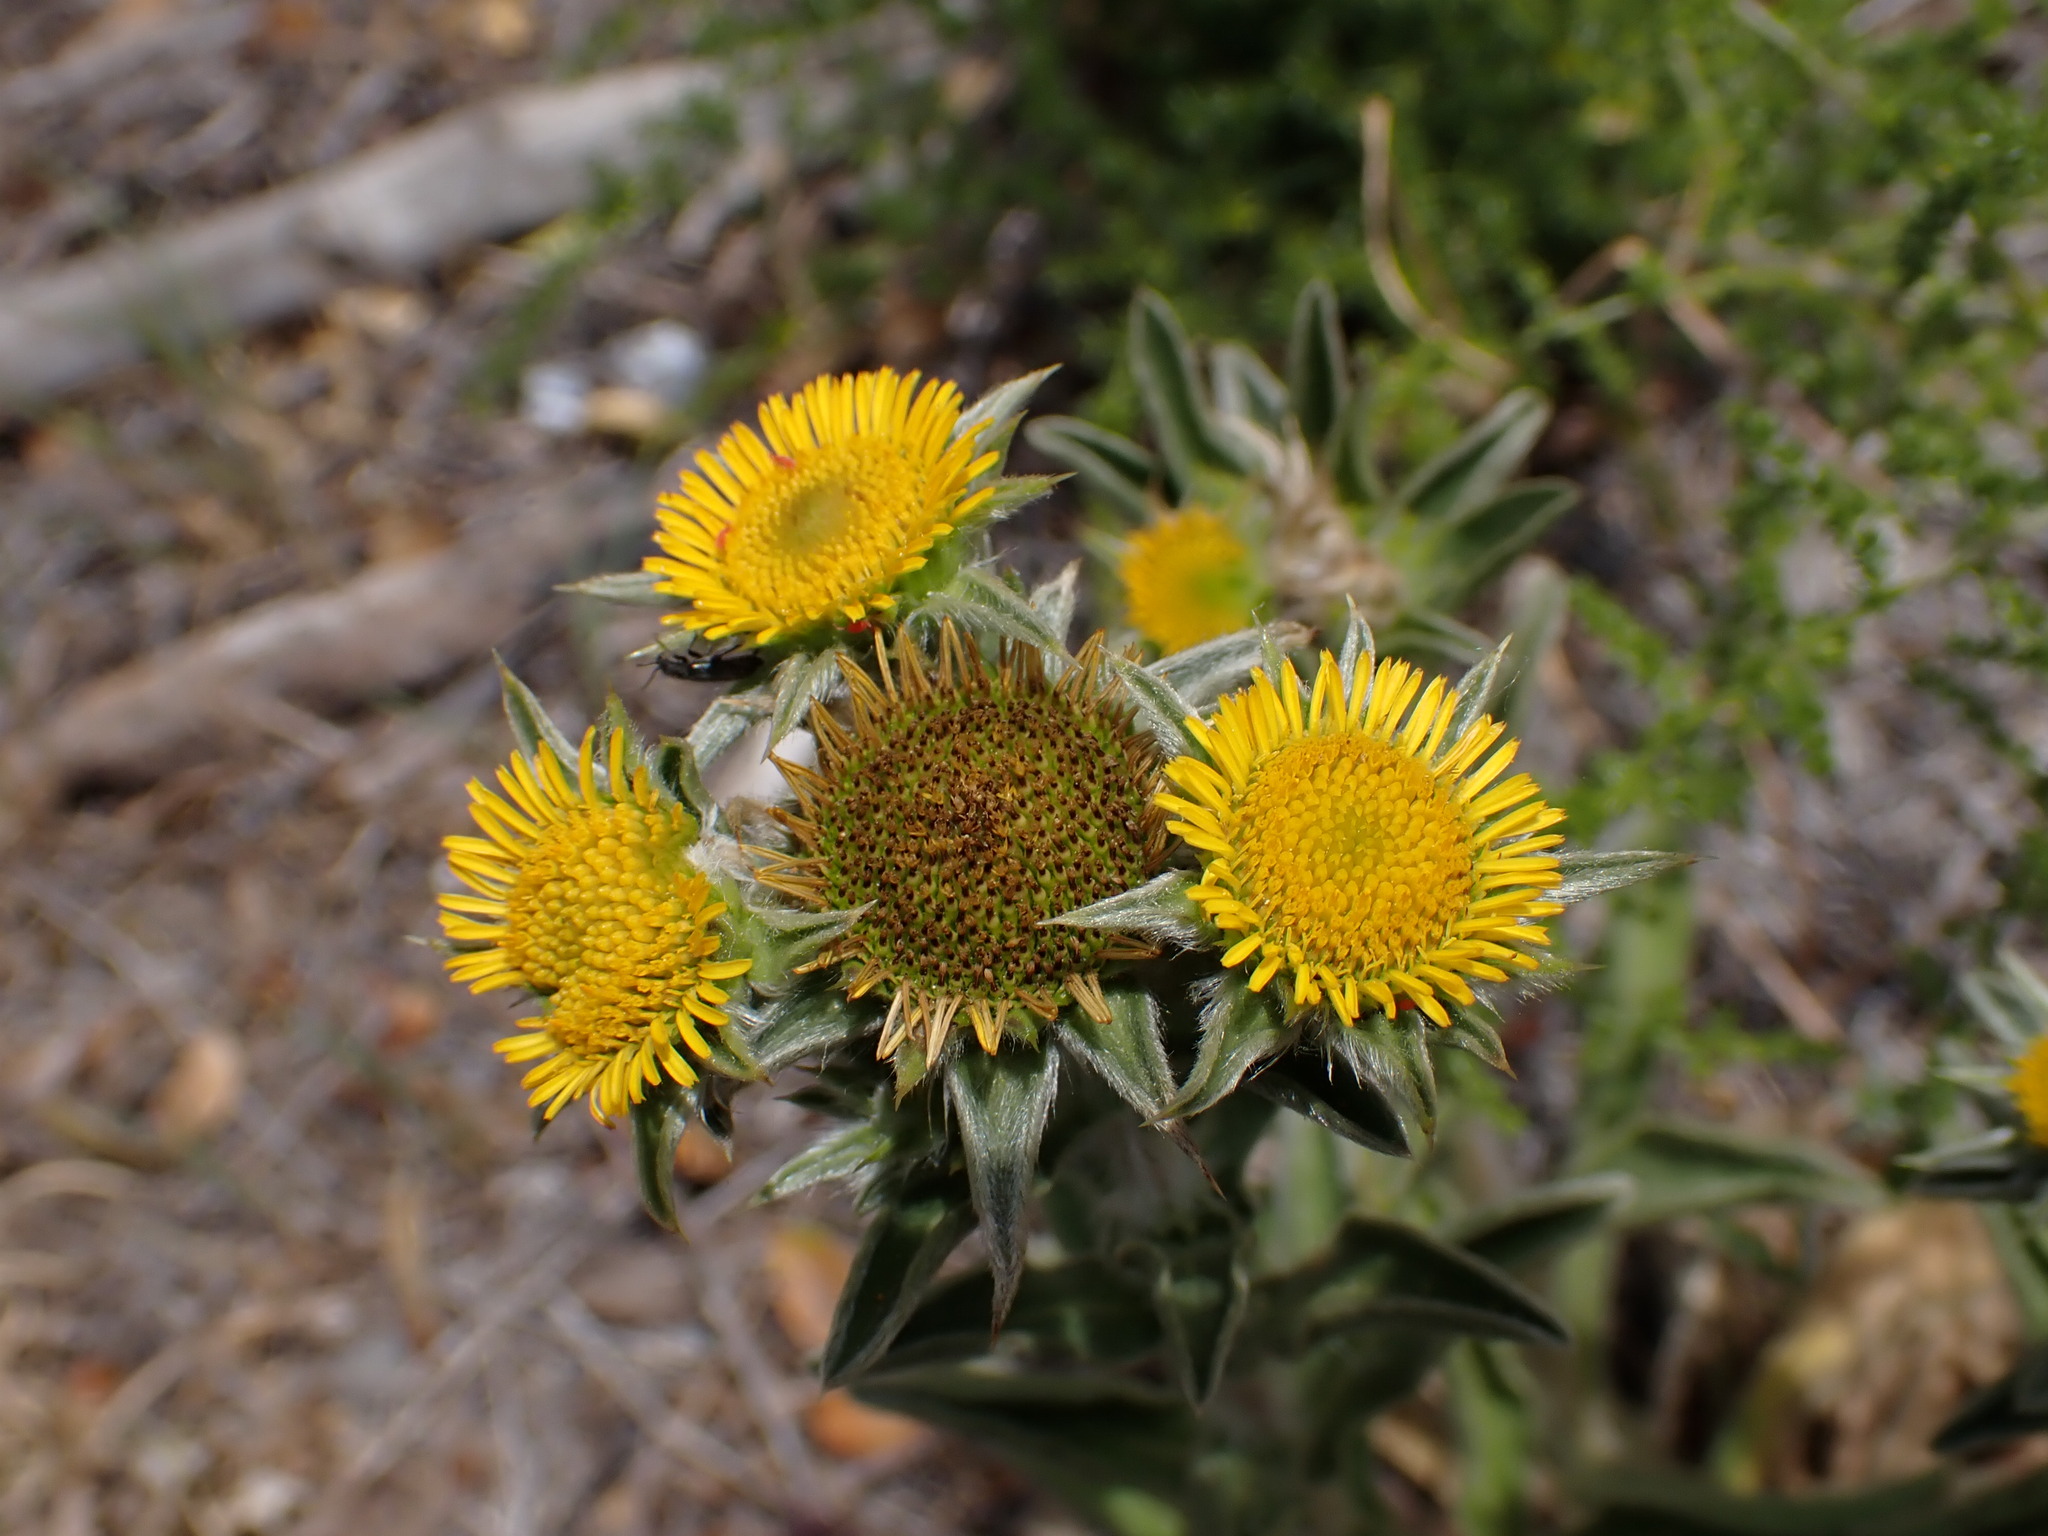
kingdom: Plantae
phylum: Tracheophyta
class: Magnoliopsida
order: Asterales
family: Asteraceae
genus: Pallenis
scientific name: Pallenis spinosa
